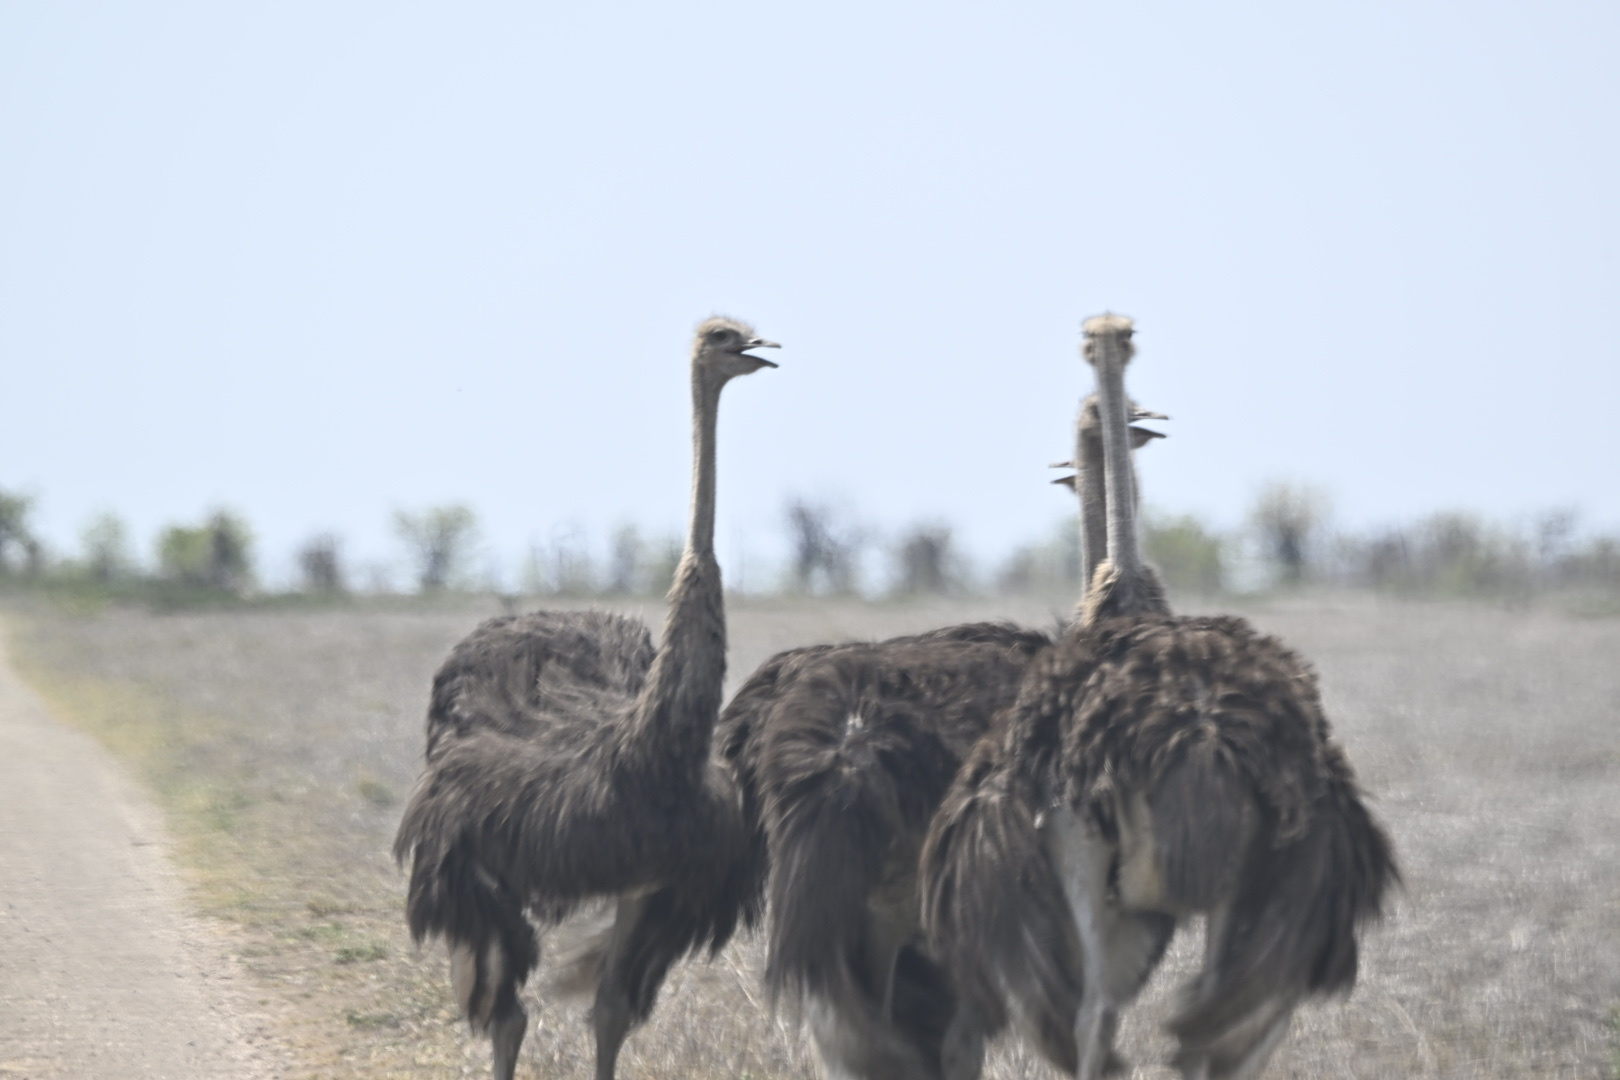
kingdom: Animalia
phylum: Chordata
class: Aves
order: Struthioniformes
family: Struthionidae
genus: Struthio
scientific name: Struthio camelus
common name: Common ostrich
